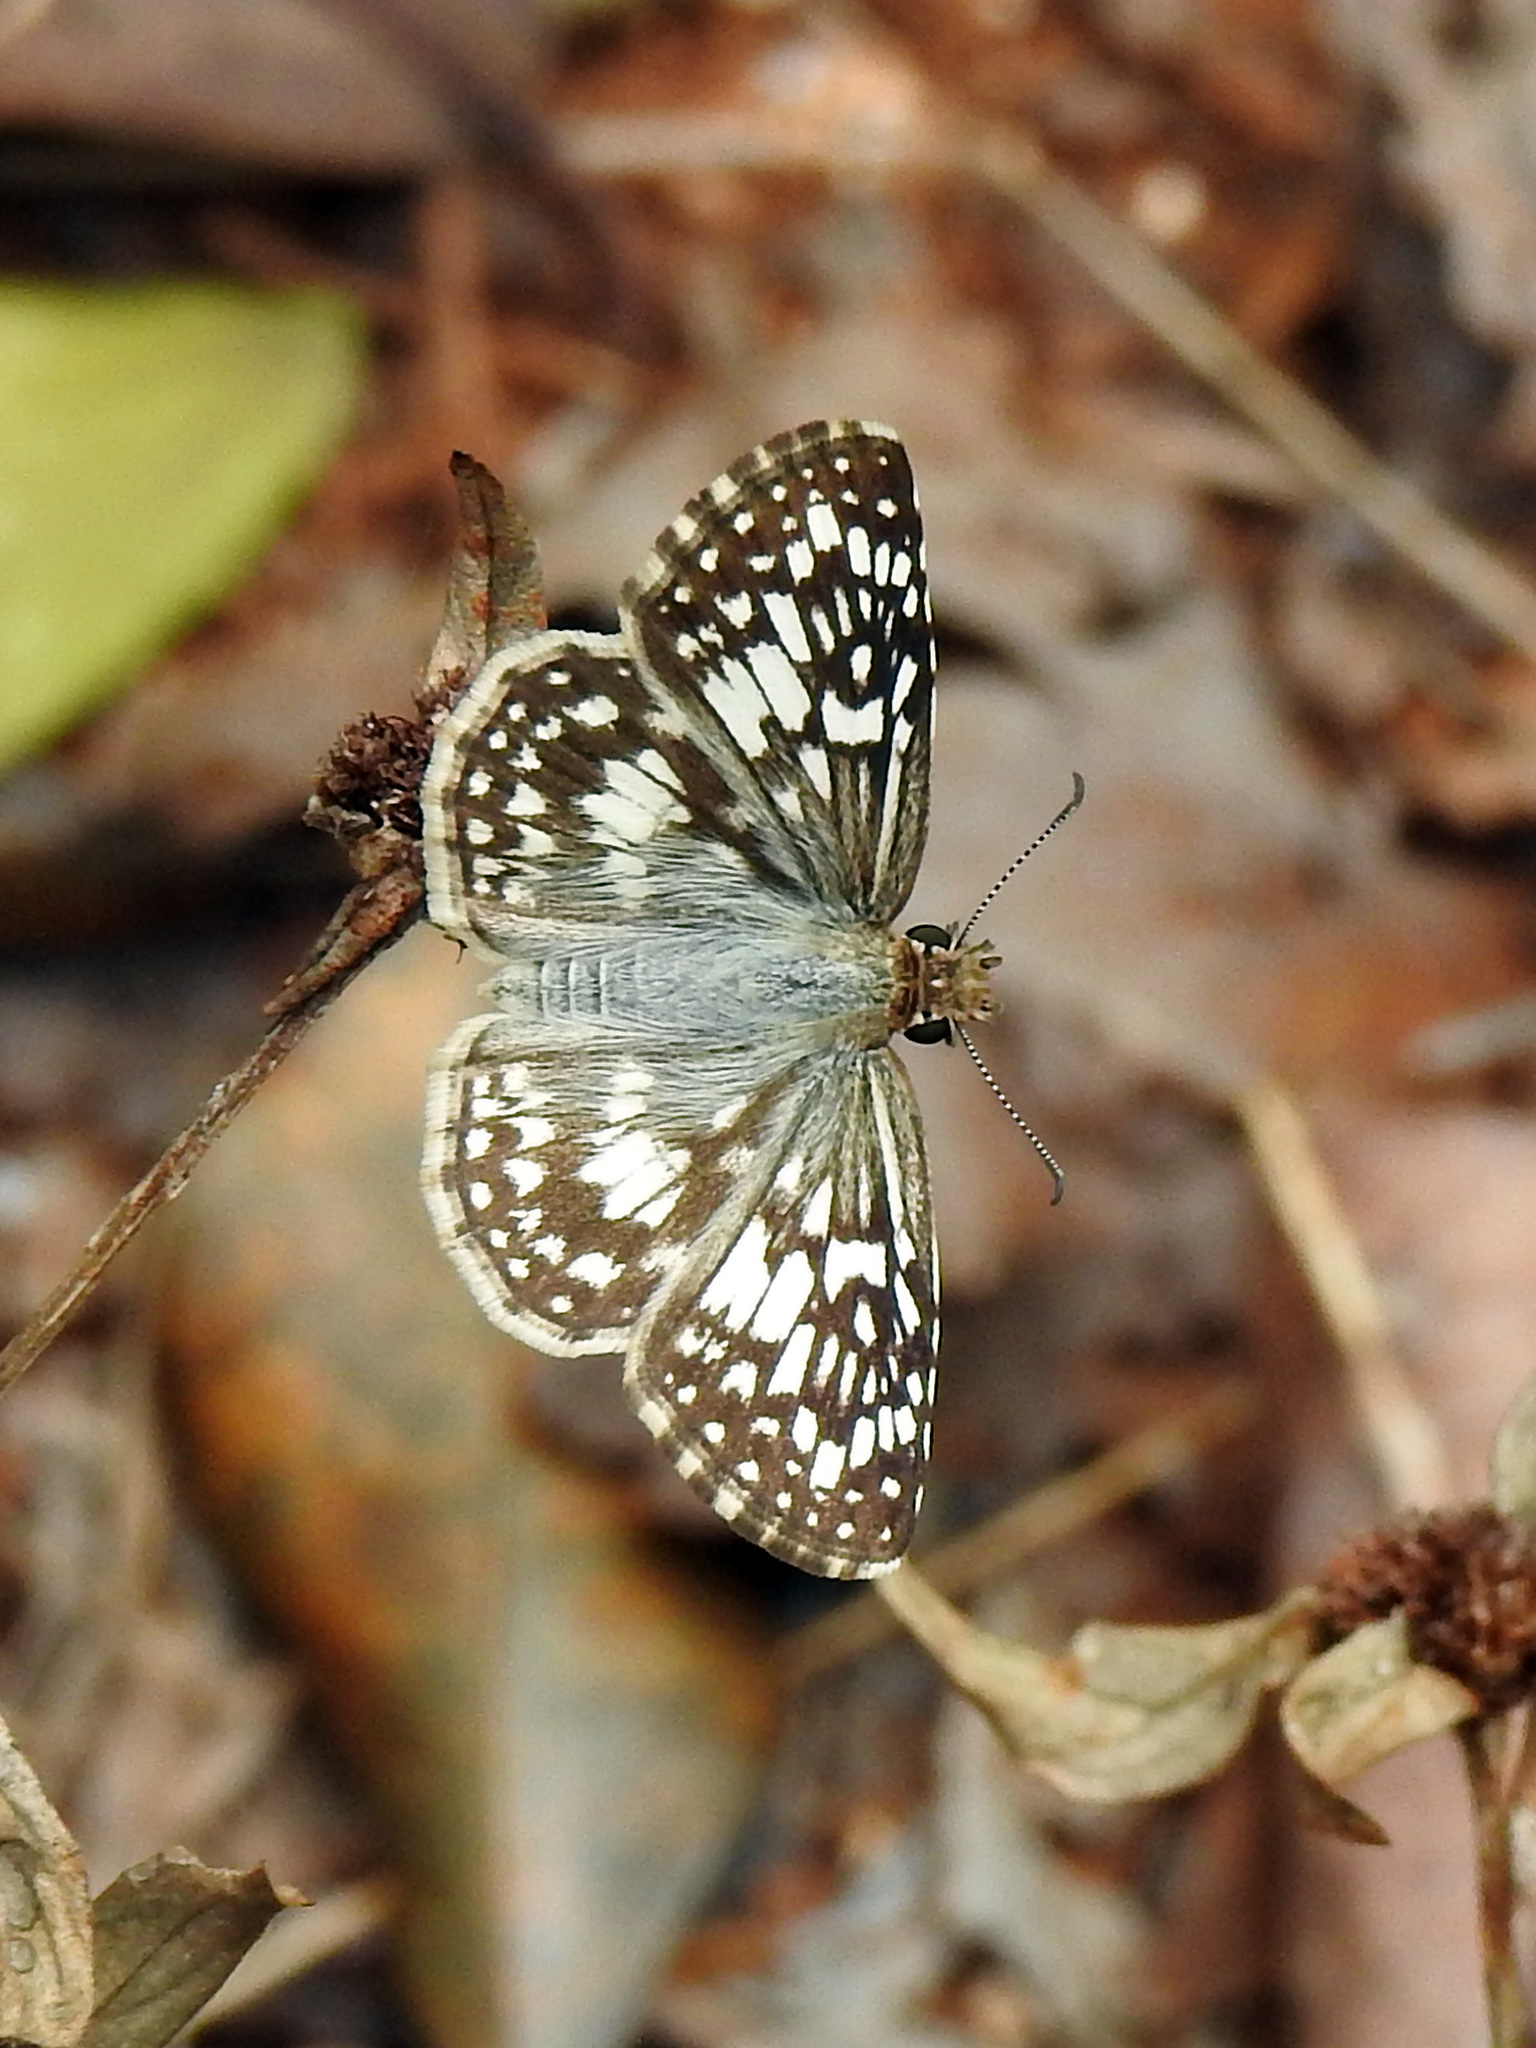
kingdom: Animalia
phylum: Arthropoda
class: Insecta
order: Lepidoptera
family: Hesperiidae
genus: Pyrgus
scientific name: Pyrgus oileus
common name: Tropical checkered-skipper
